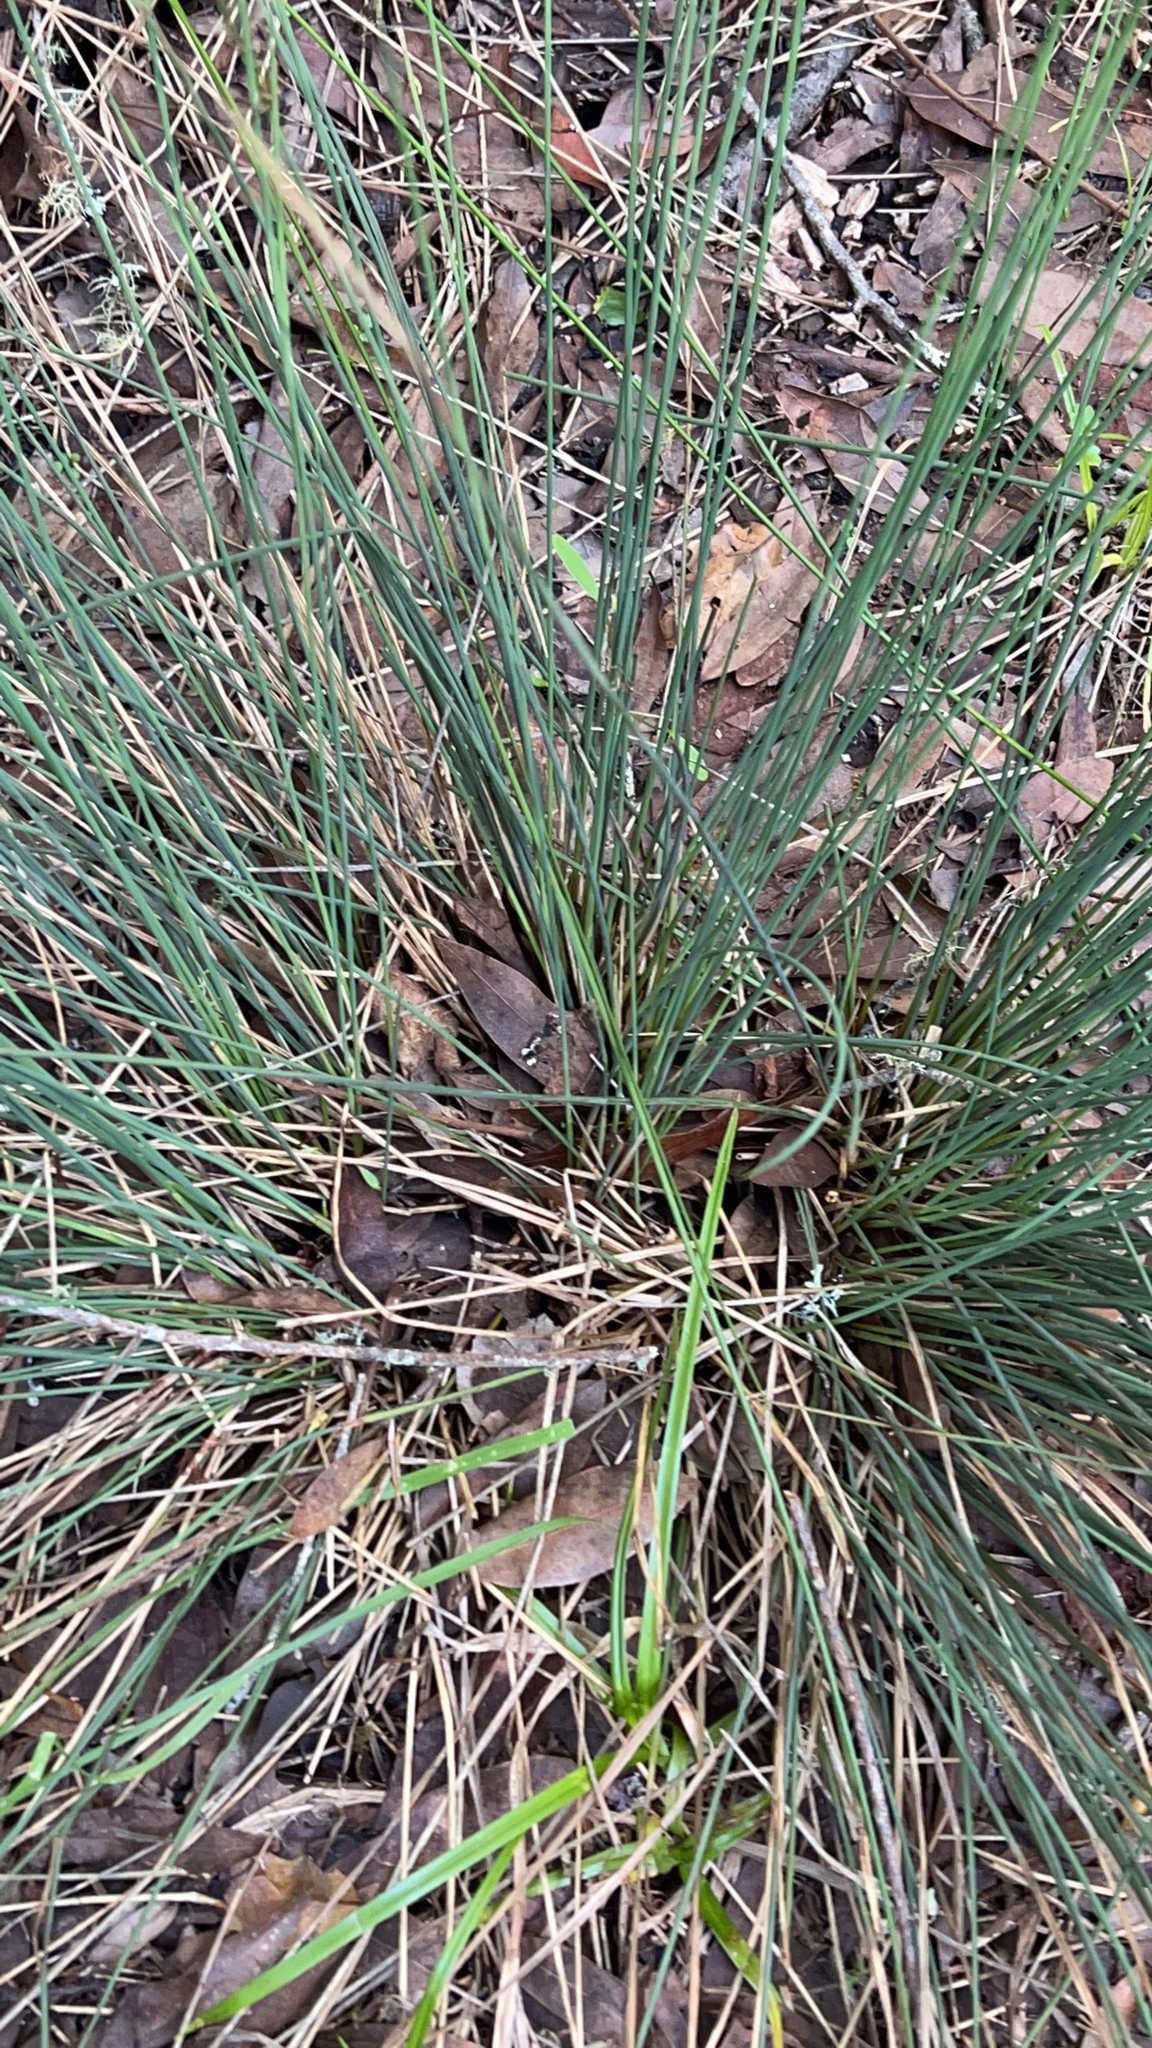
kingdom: Plantae
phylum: Tracheophyta
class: Liliopsida
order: Poales
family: Juncaceae
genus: Juncus
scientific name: Juncus patens
